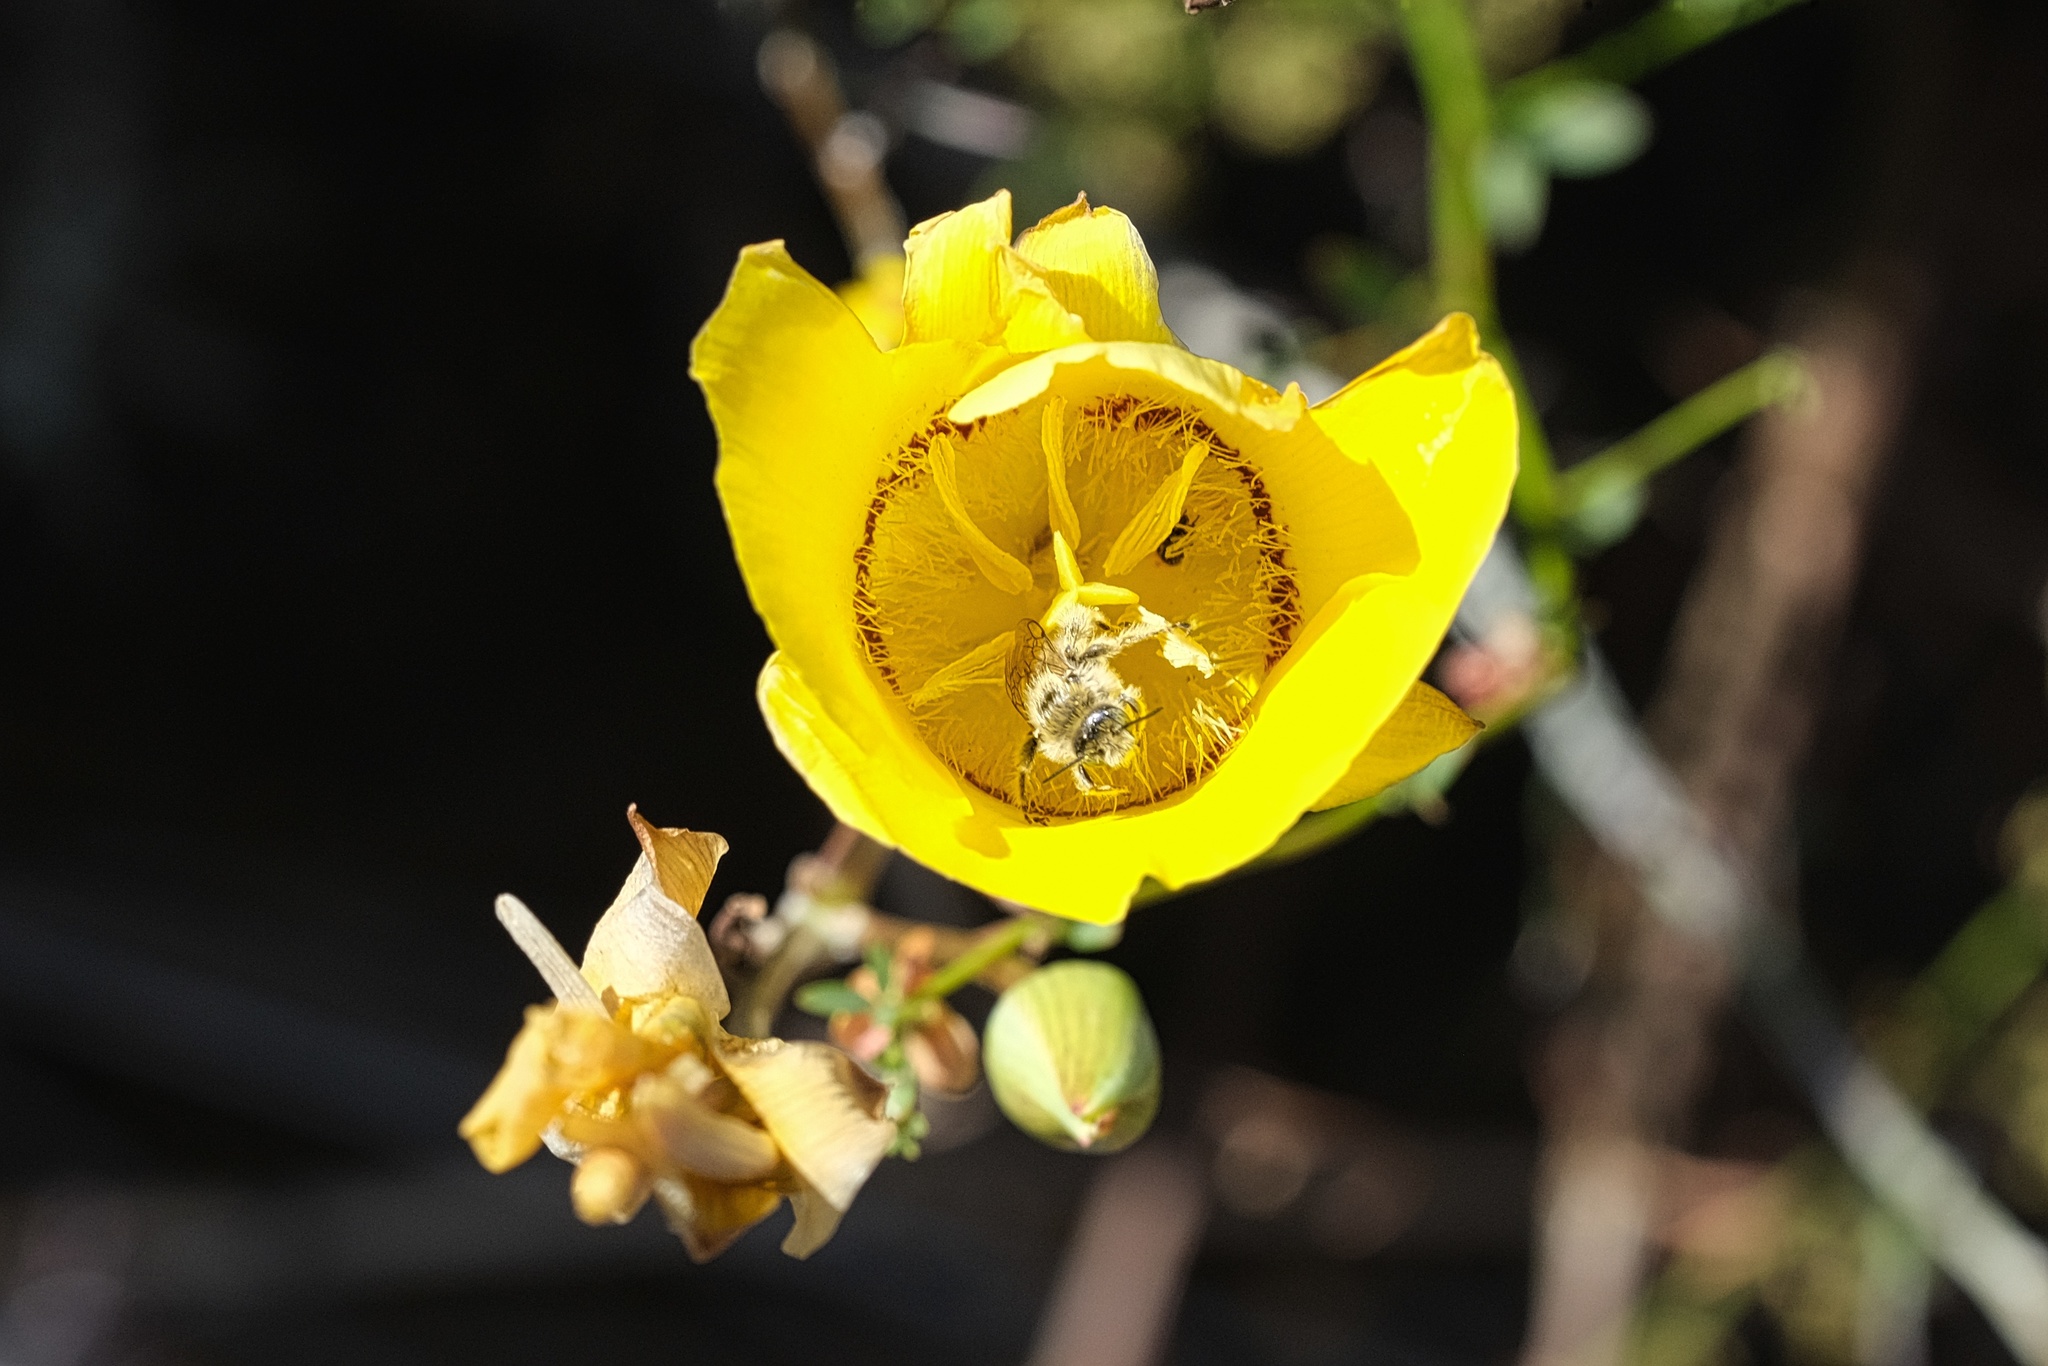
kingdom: Plantae
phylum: Tracheophyta
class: Liliopsida
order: Liliales
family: Liliaceae
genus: Calochortus
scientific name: Calochortus concolor
